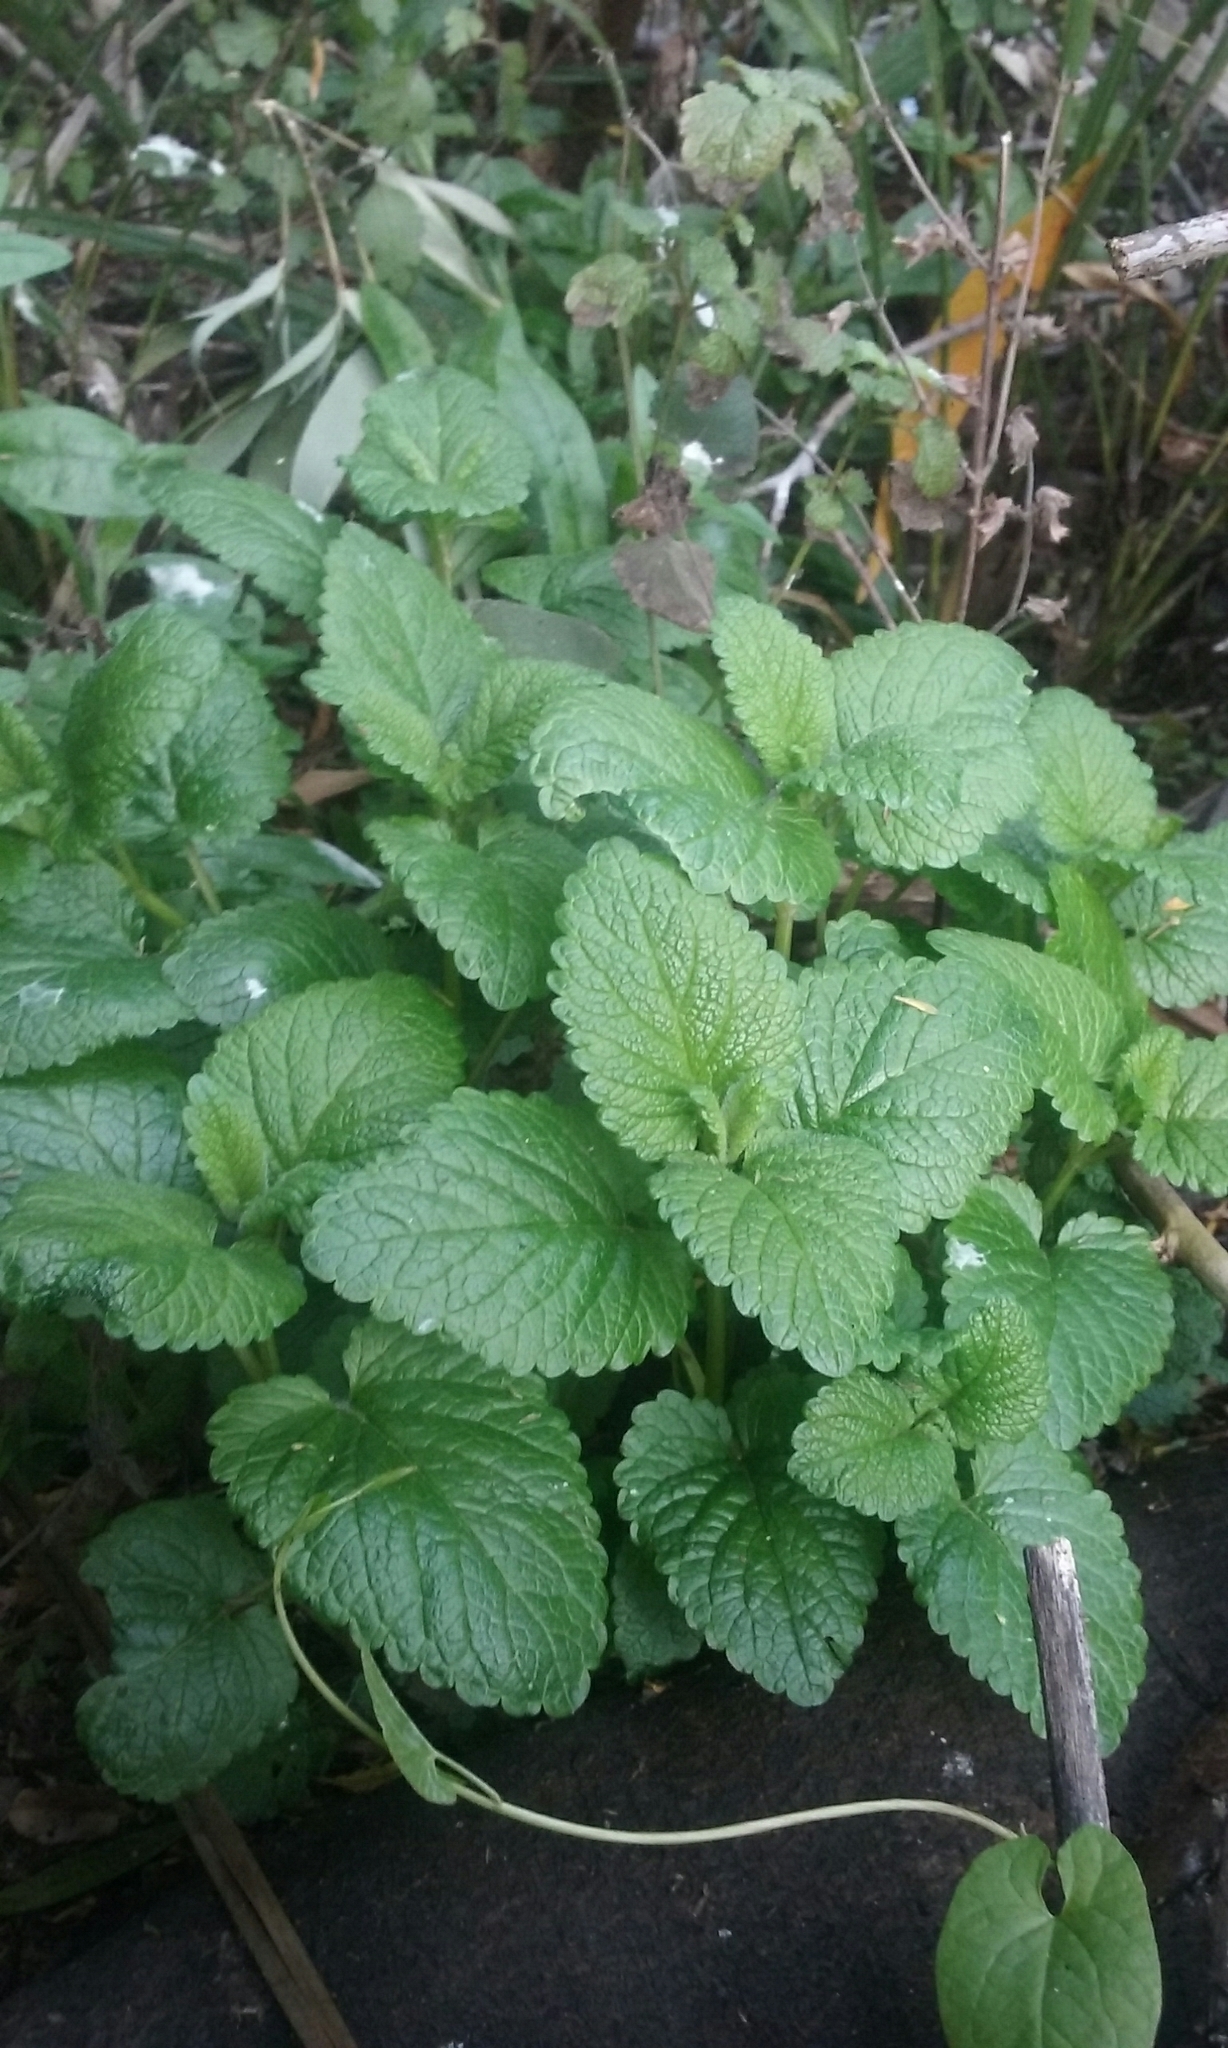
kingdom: Plantae
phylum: Tracheophyta
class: Magnoliopsida
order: Lamiales
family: Lamiaceae
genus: Melissa
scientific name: Melissa officinalis
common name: Balm
